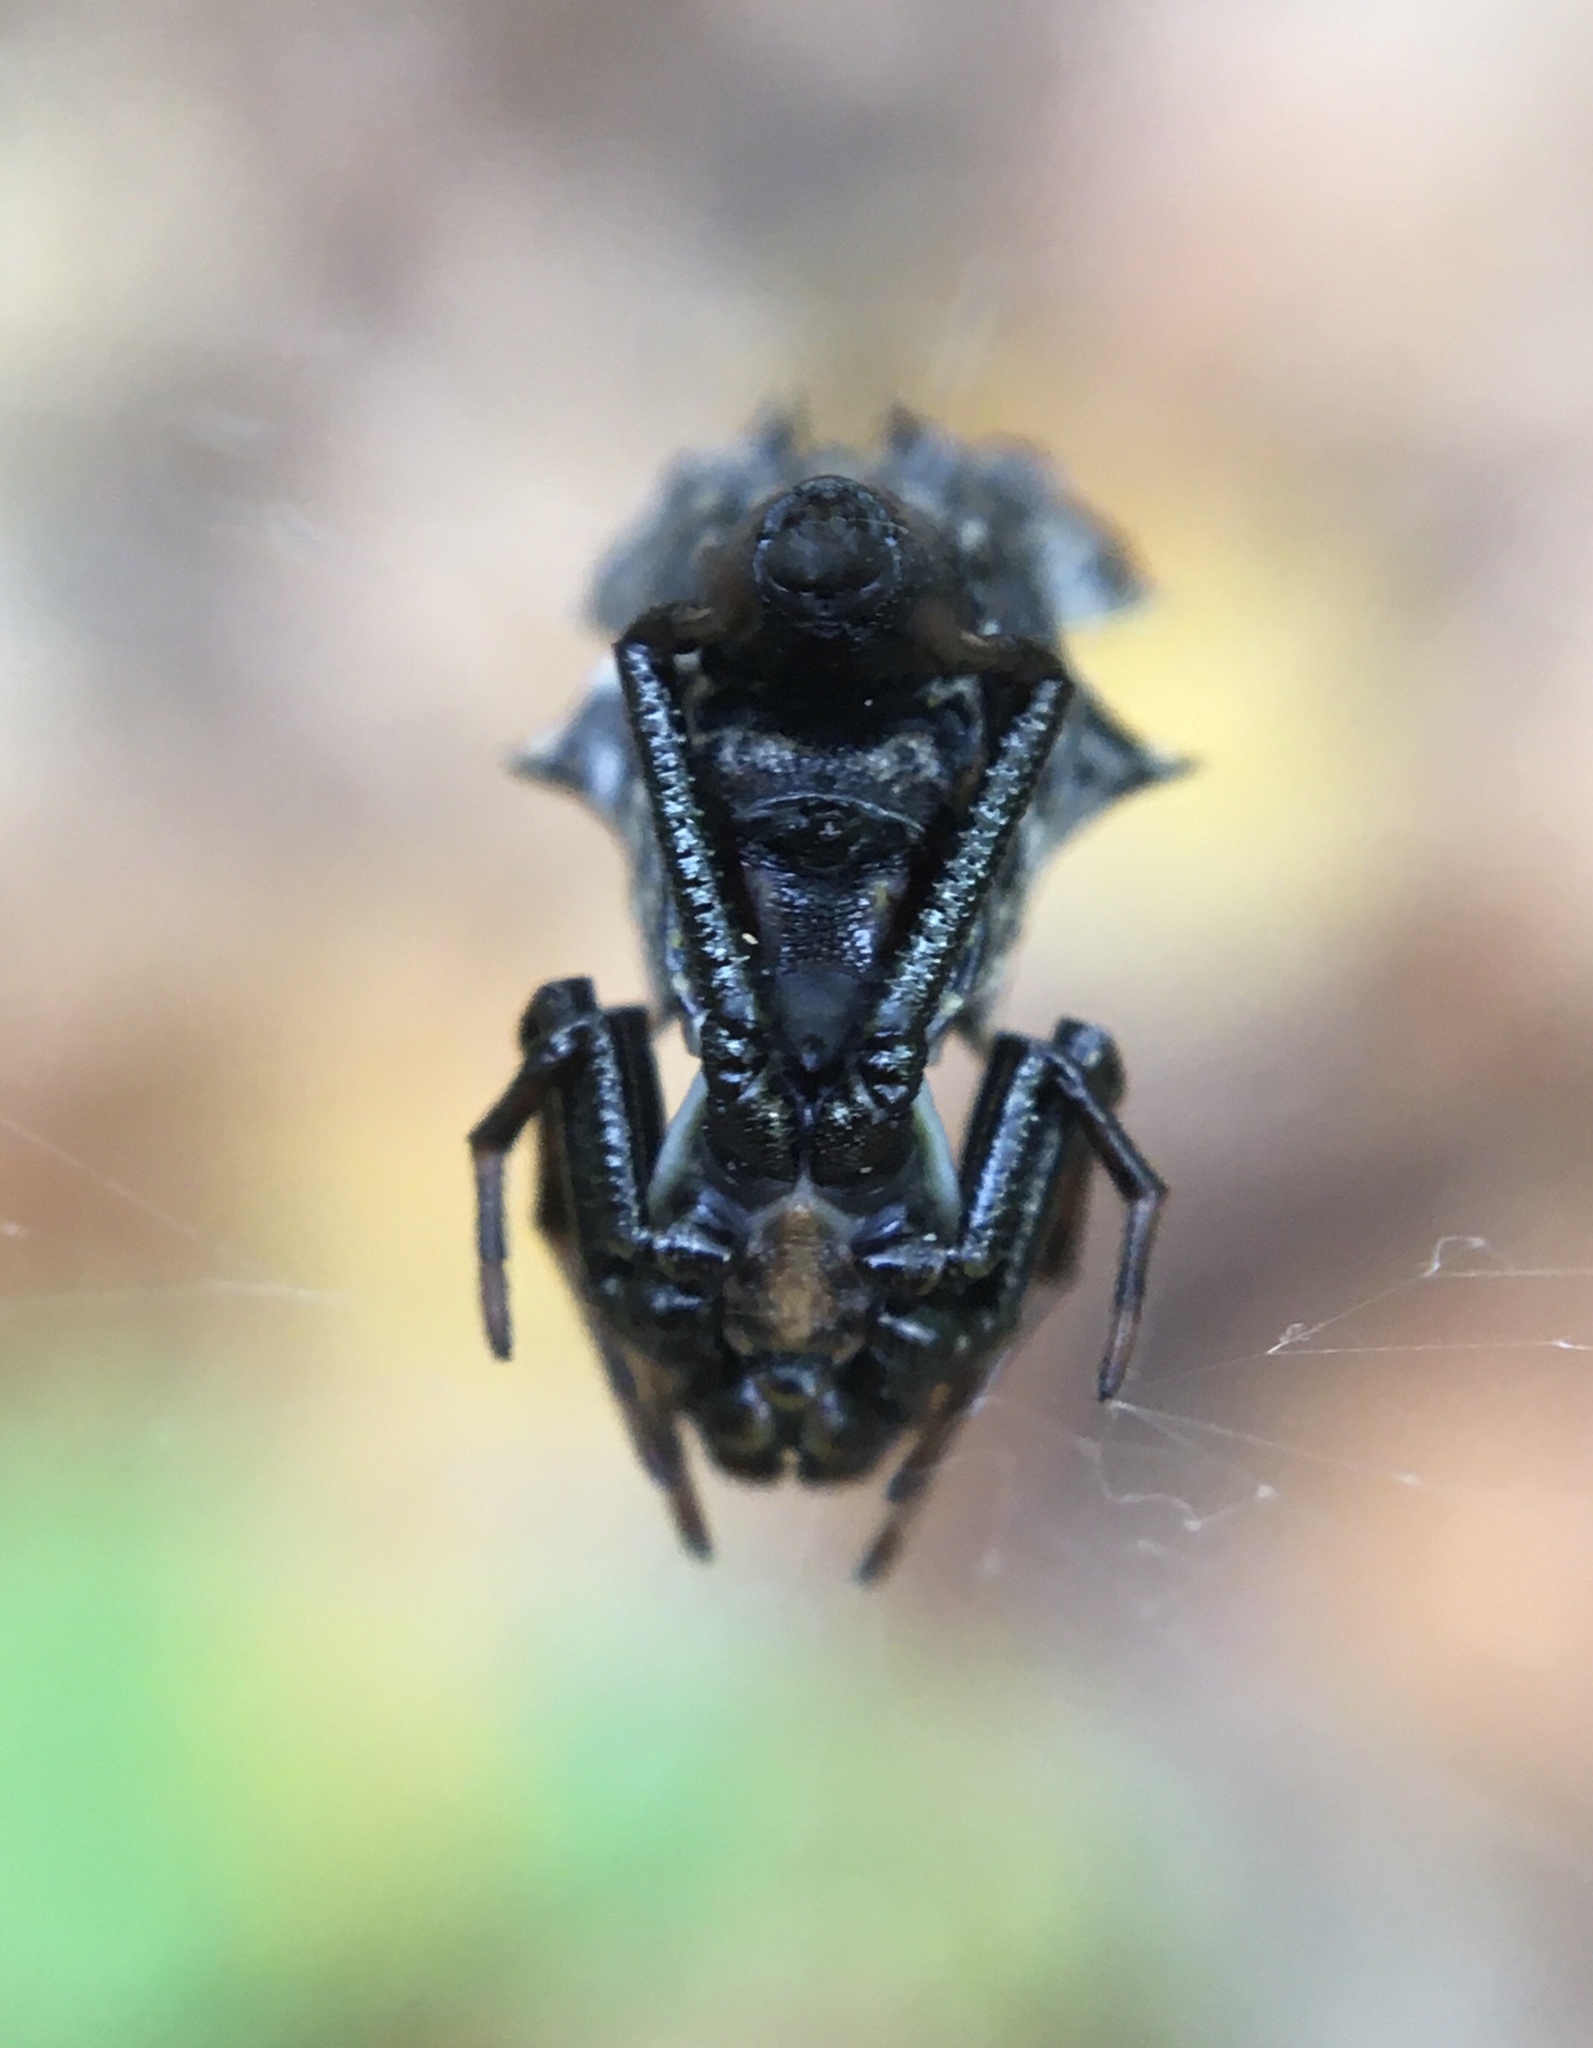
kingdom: Animalia
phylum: Arthropoda
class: Arachnida
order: Araneae
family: Araneidae
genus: Micrathena
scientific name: Micrathena gracilis
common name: Orb weavers
